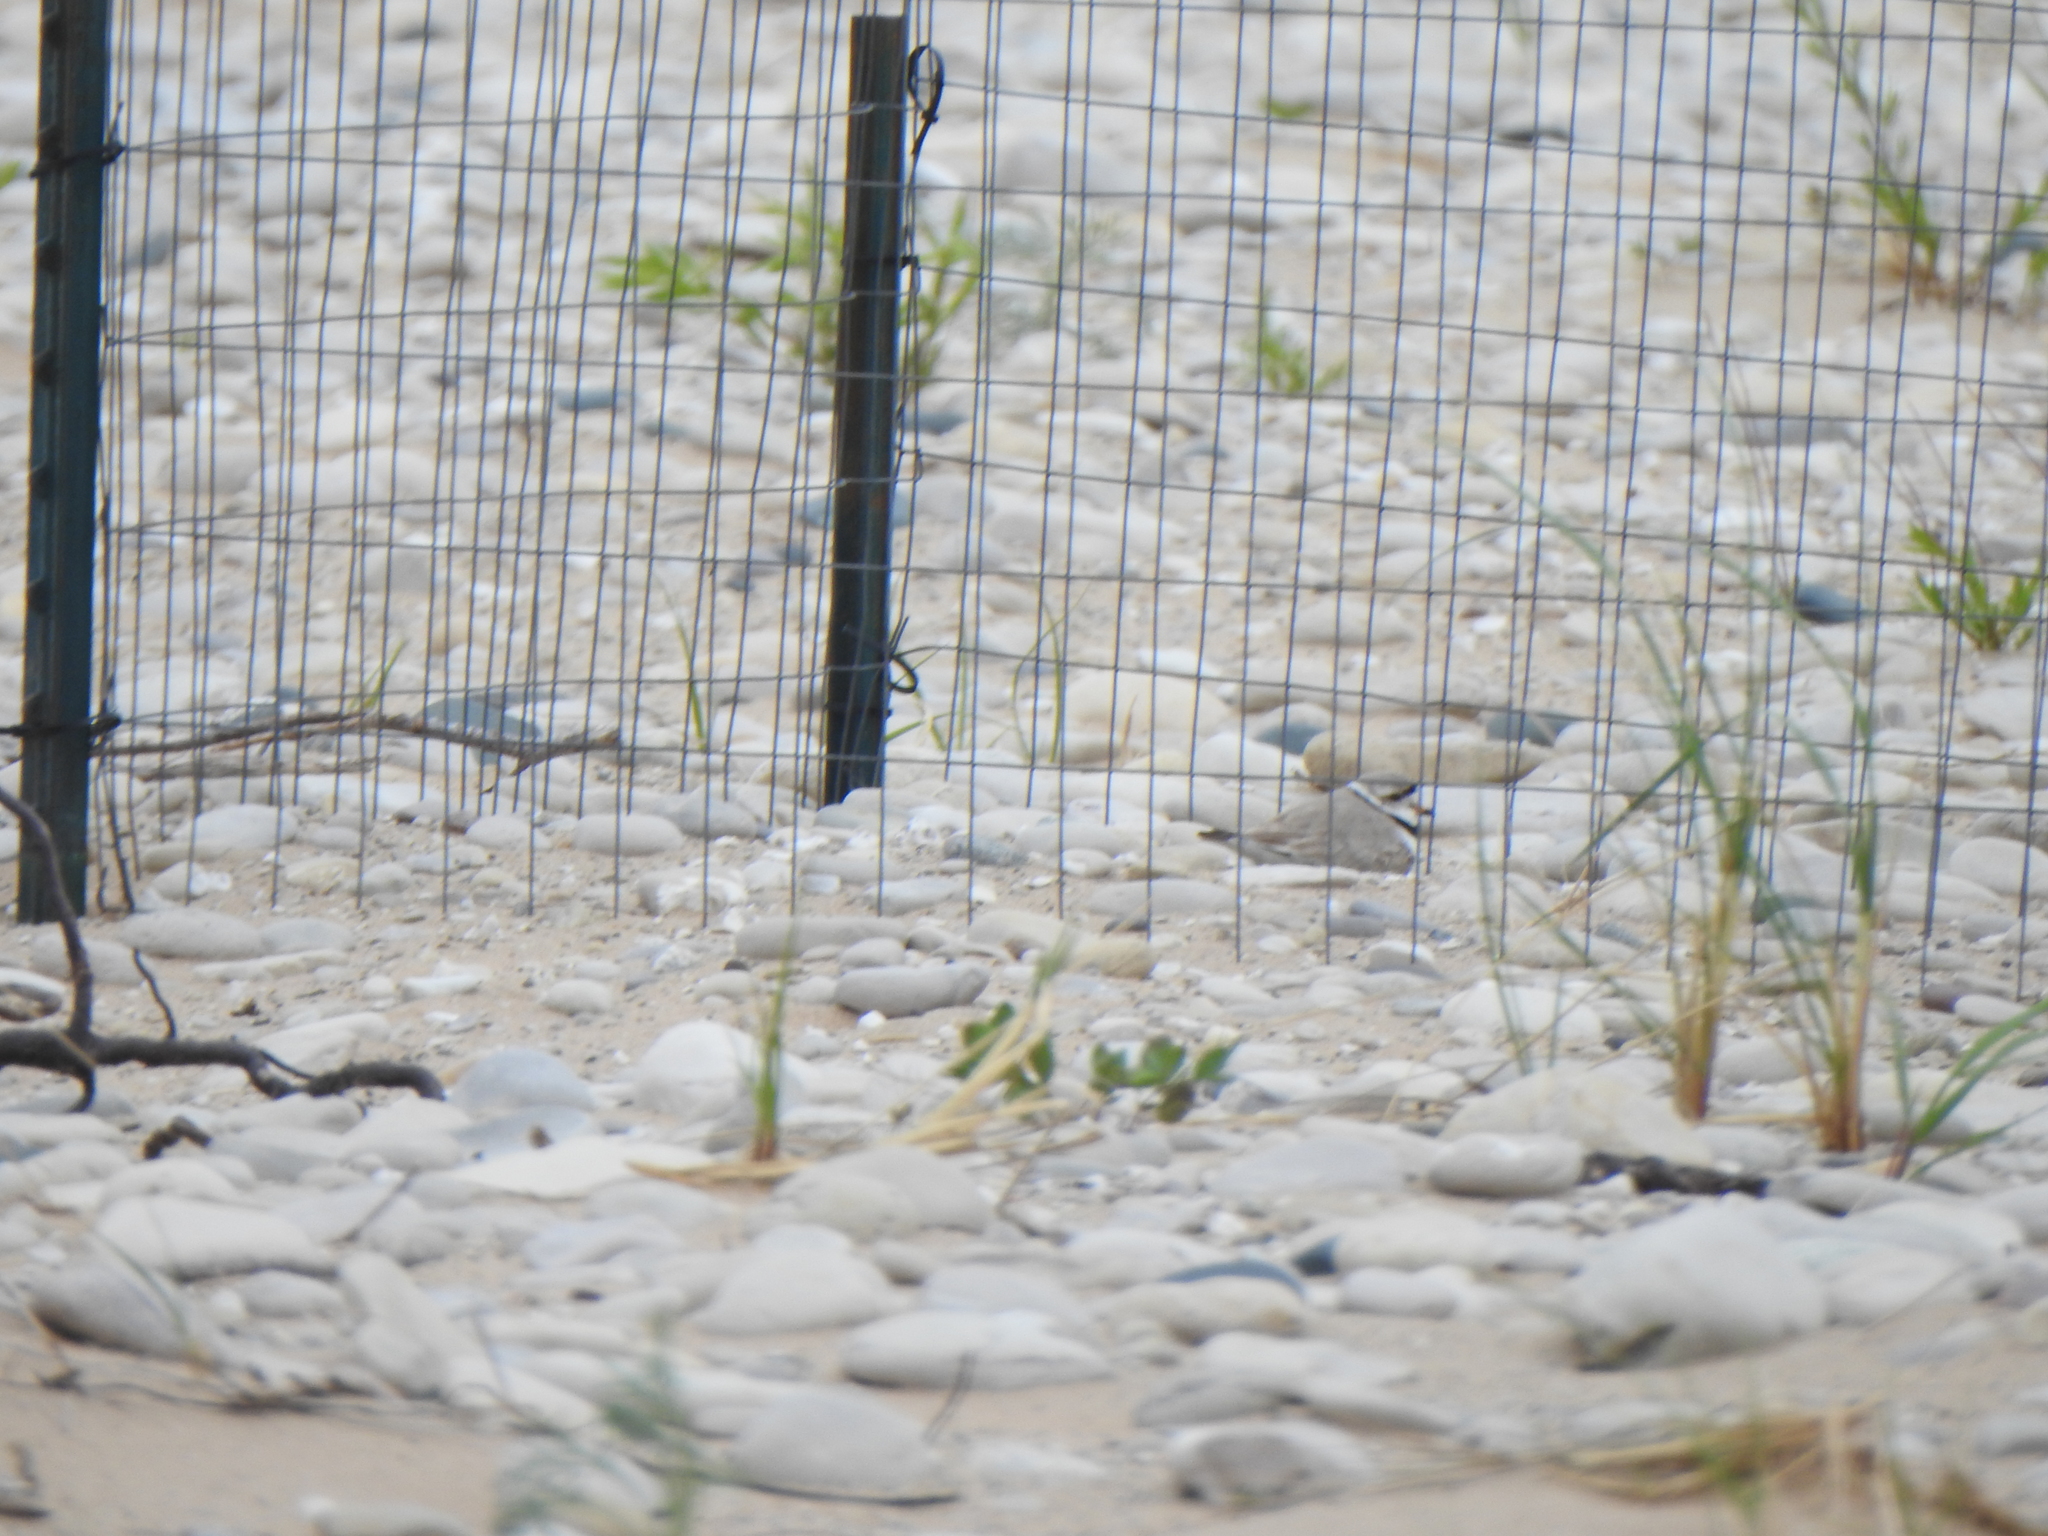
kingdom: Animalia
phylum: Chordata
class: Aves
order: Charadriiformes
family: Charadriidae
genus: Charadrius
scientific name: Charadrius melodus
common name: Piping plover
